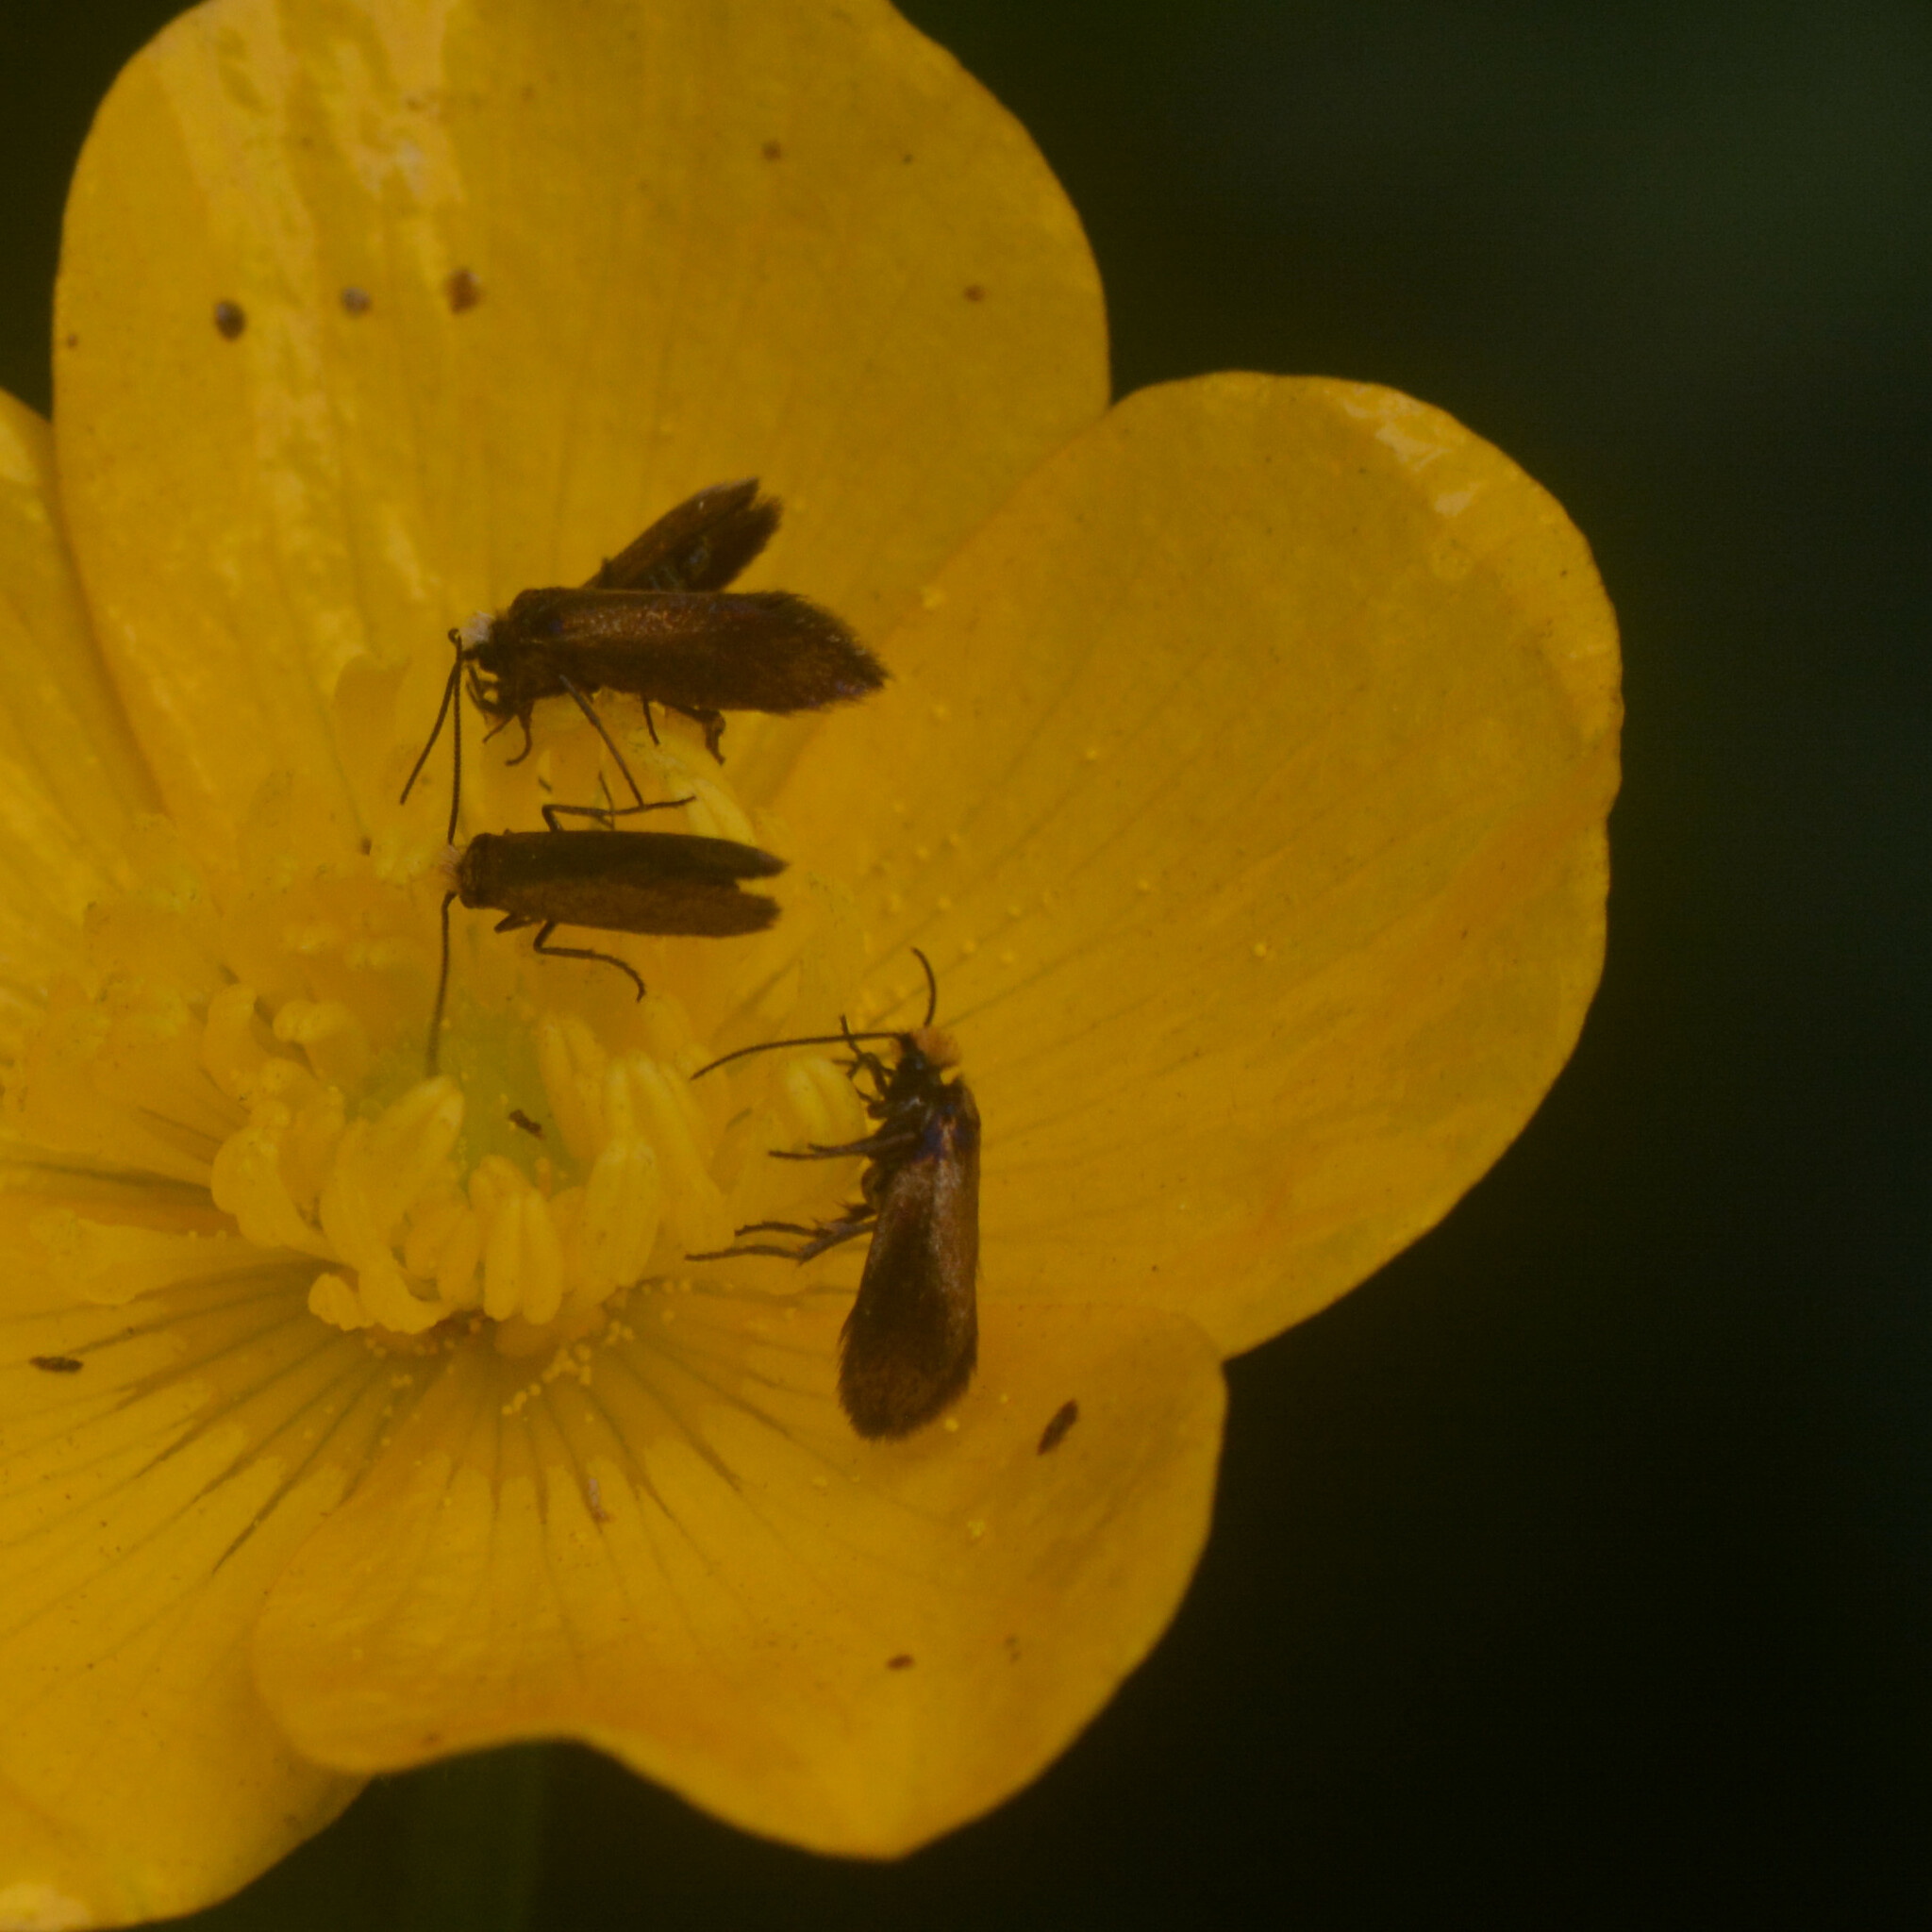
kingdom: Animalia
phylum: Arthropoda
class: Insecta
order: Lepidoptera
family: Micropterigidae
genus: Micropterix
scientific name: Micropterix calthella
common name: Plain gold
